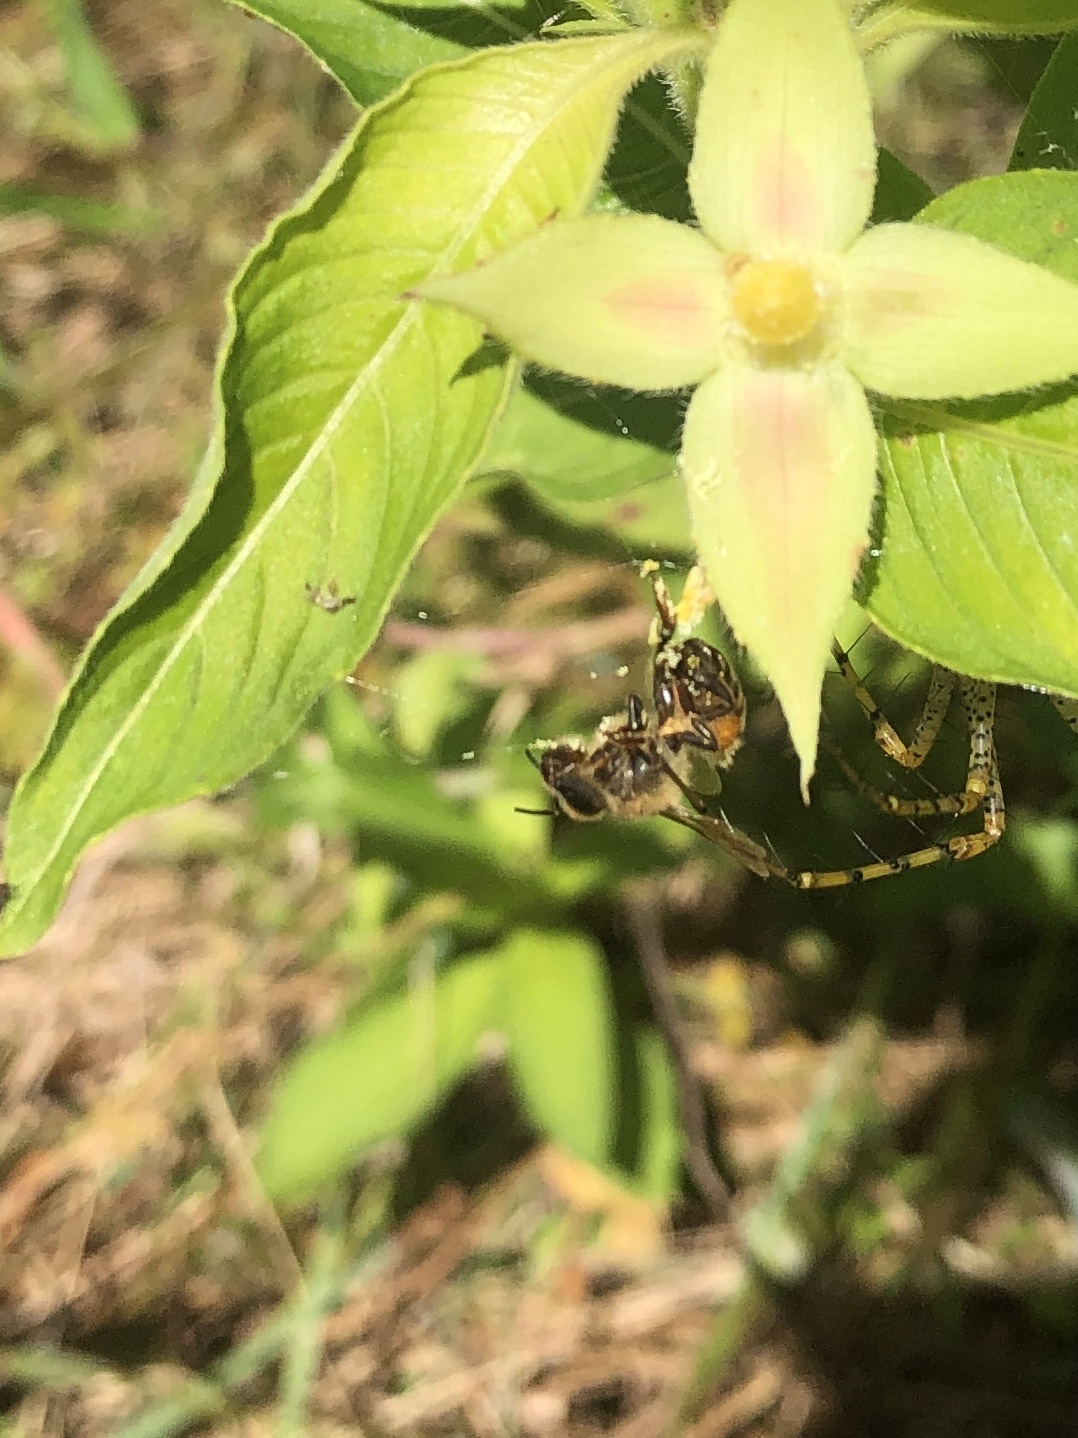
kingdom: Animalia
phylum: Arthropoda
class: Insecta
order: Hymenoptera
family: Apidae
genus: Apis
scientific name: Apis mellifera
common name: Honey bee
